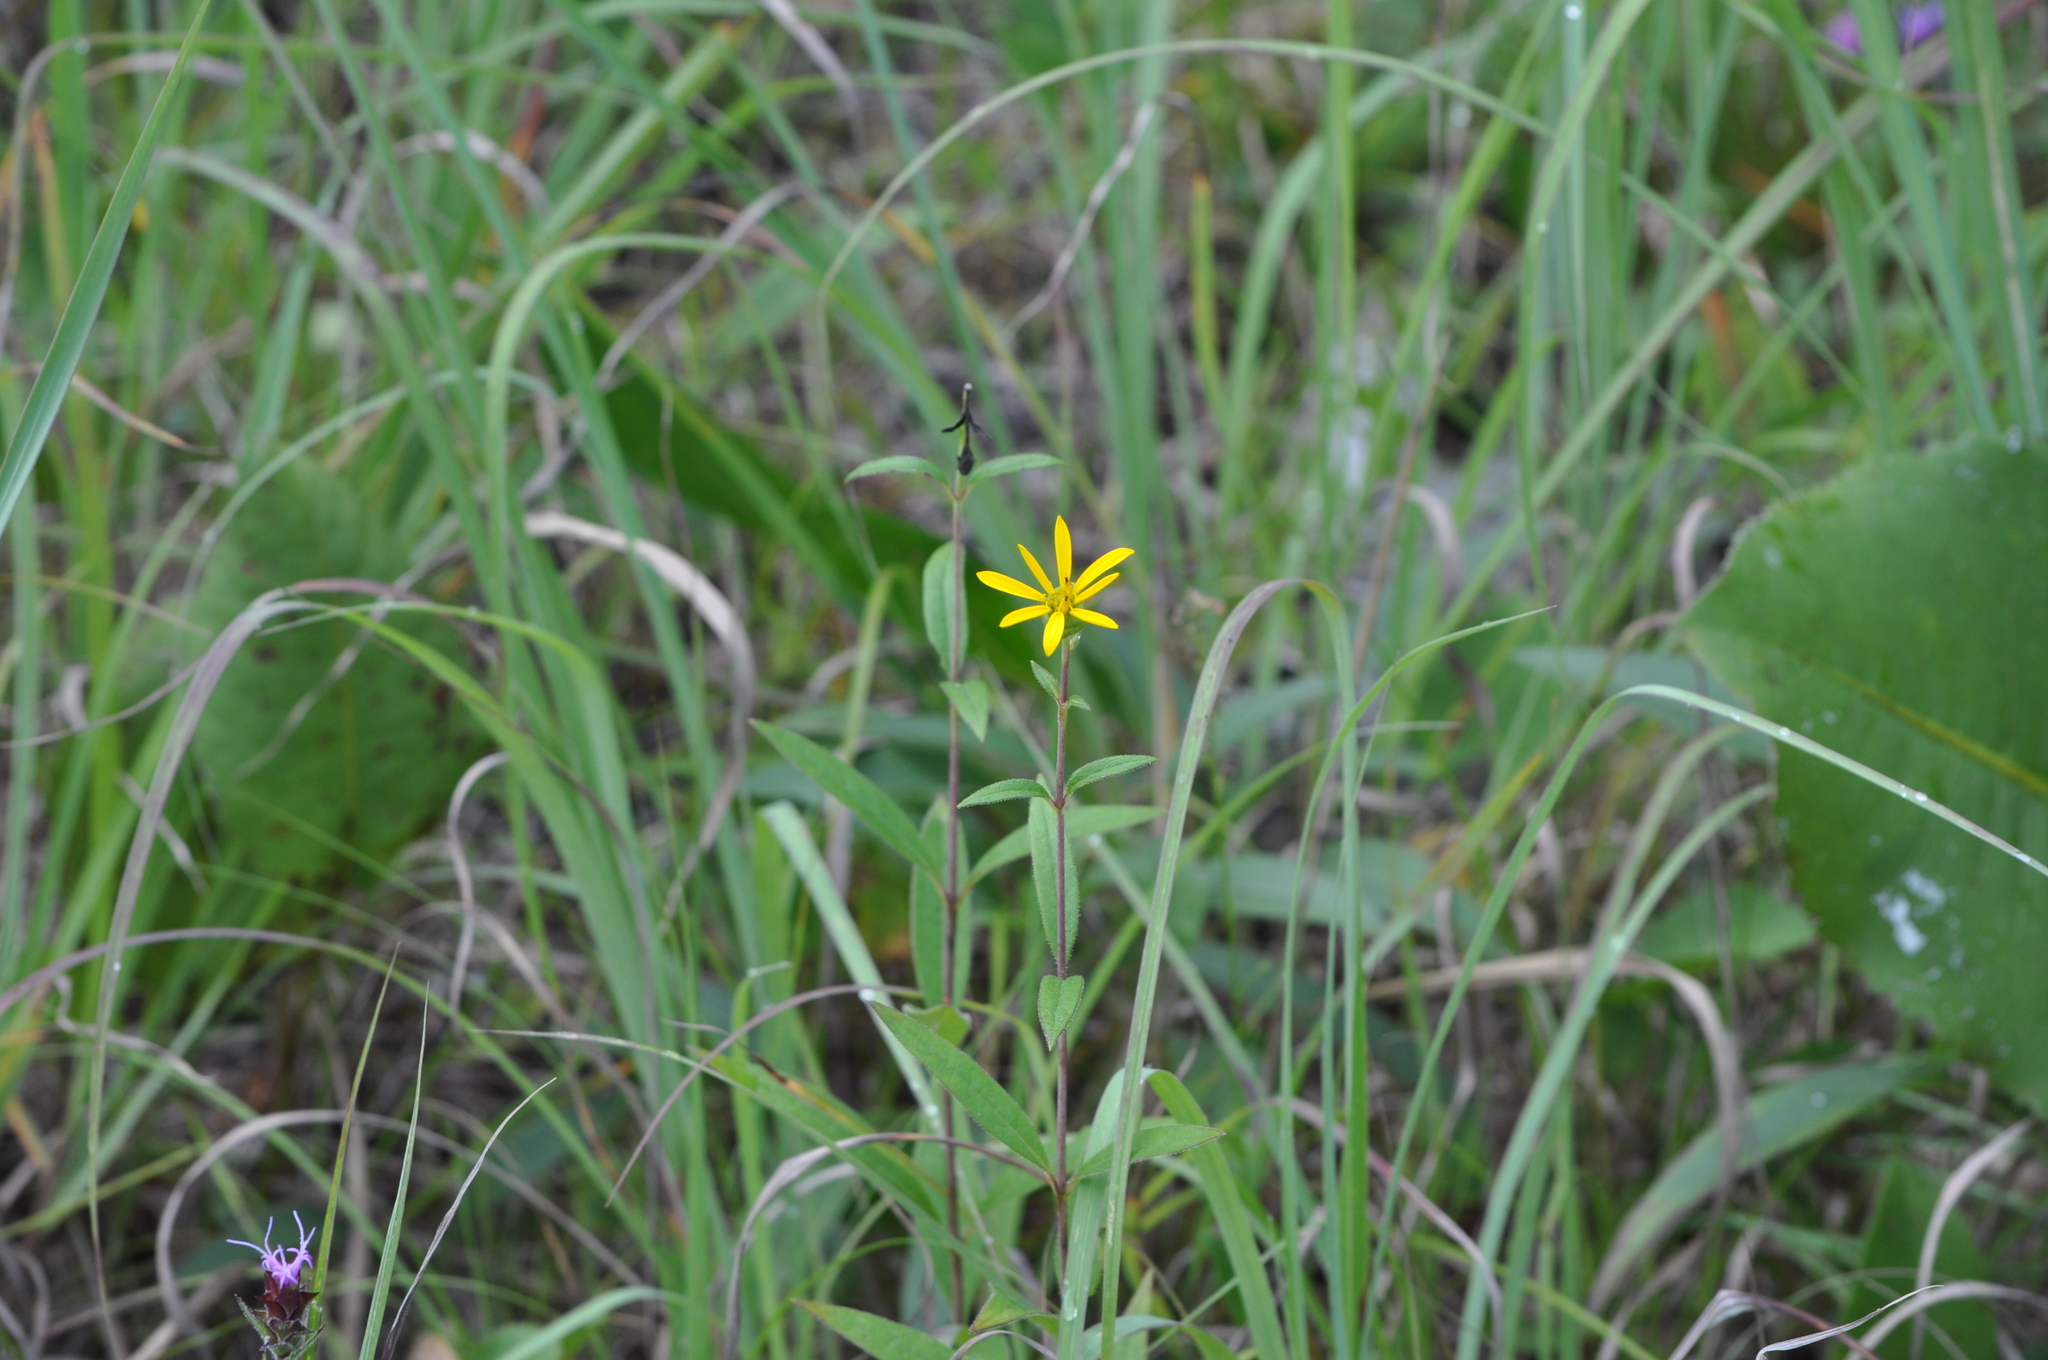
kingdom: Plantae
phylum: Tracheophyta
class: Magnoliopsida
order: Asterales
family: Asteraceae
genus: Silphium
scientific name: Silphium asteriscus
